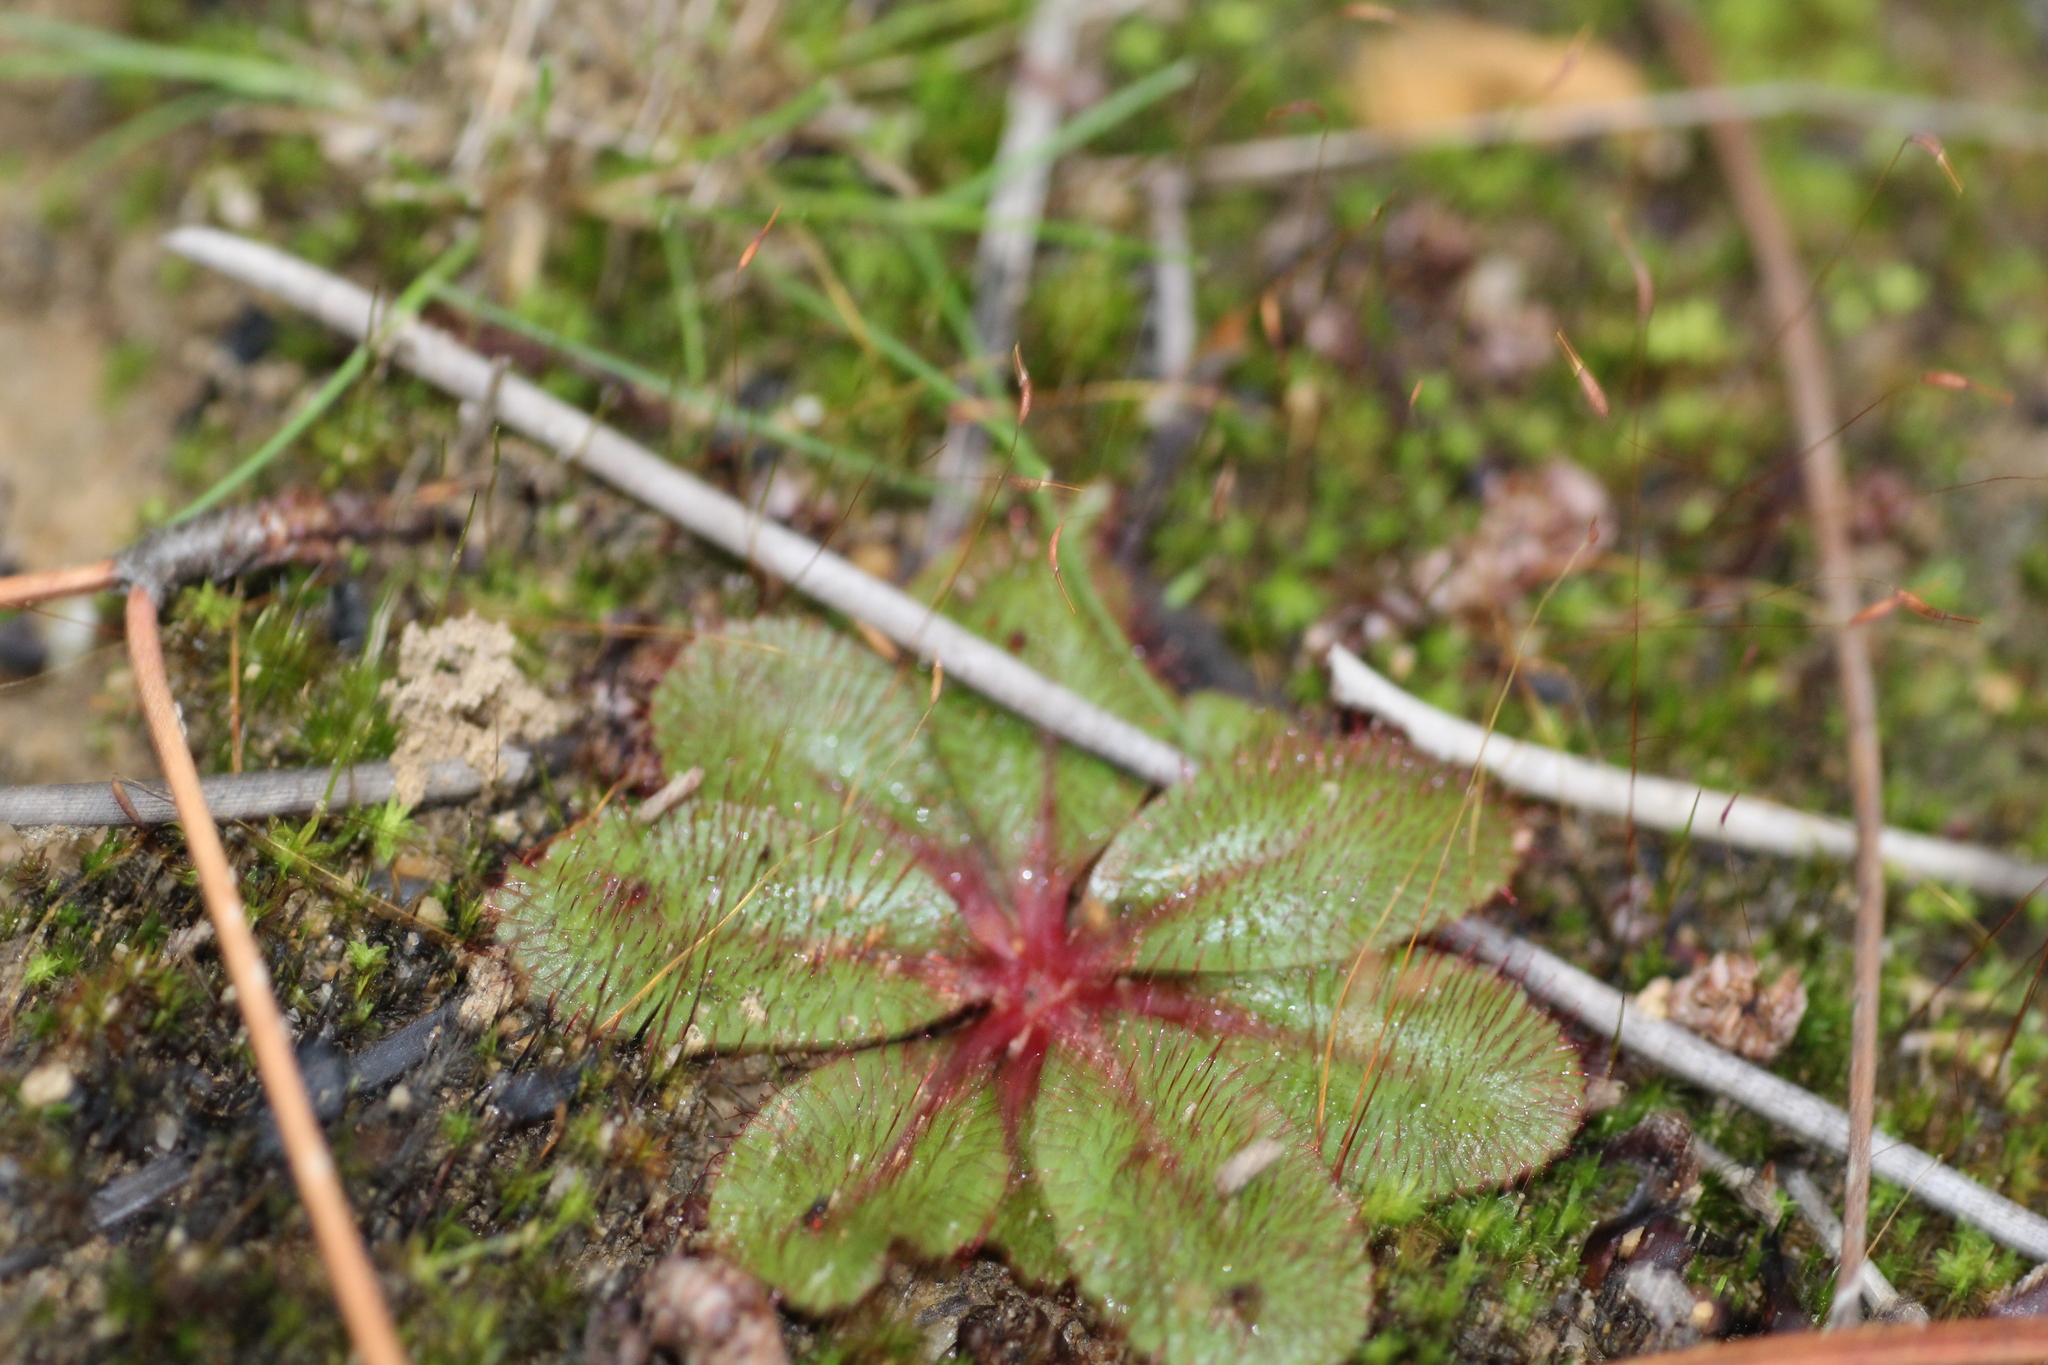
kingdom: Plantae
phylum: Tracheophyta
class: Magnoliopsida
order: Caryophyllales
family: Droseraceae
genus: Drosera
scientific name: Drosera rosulata
